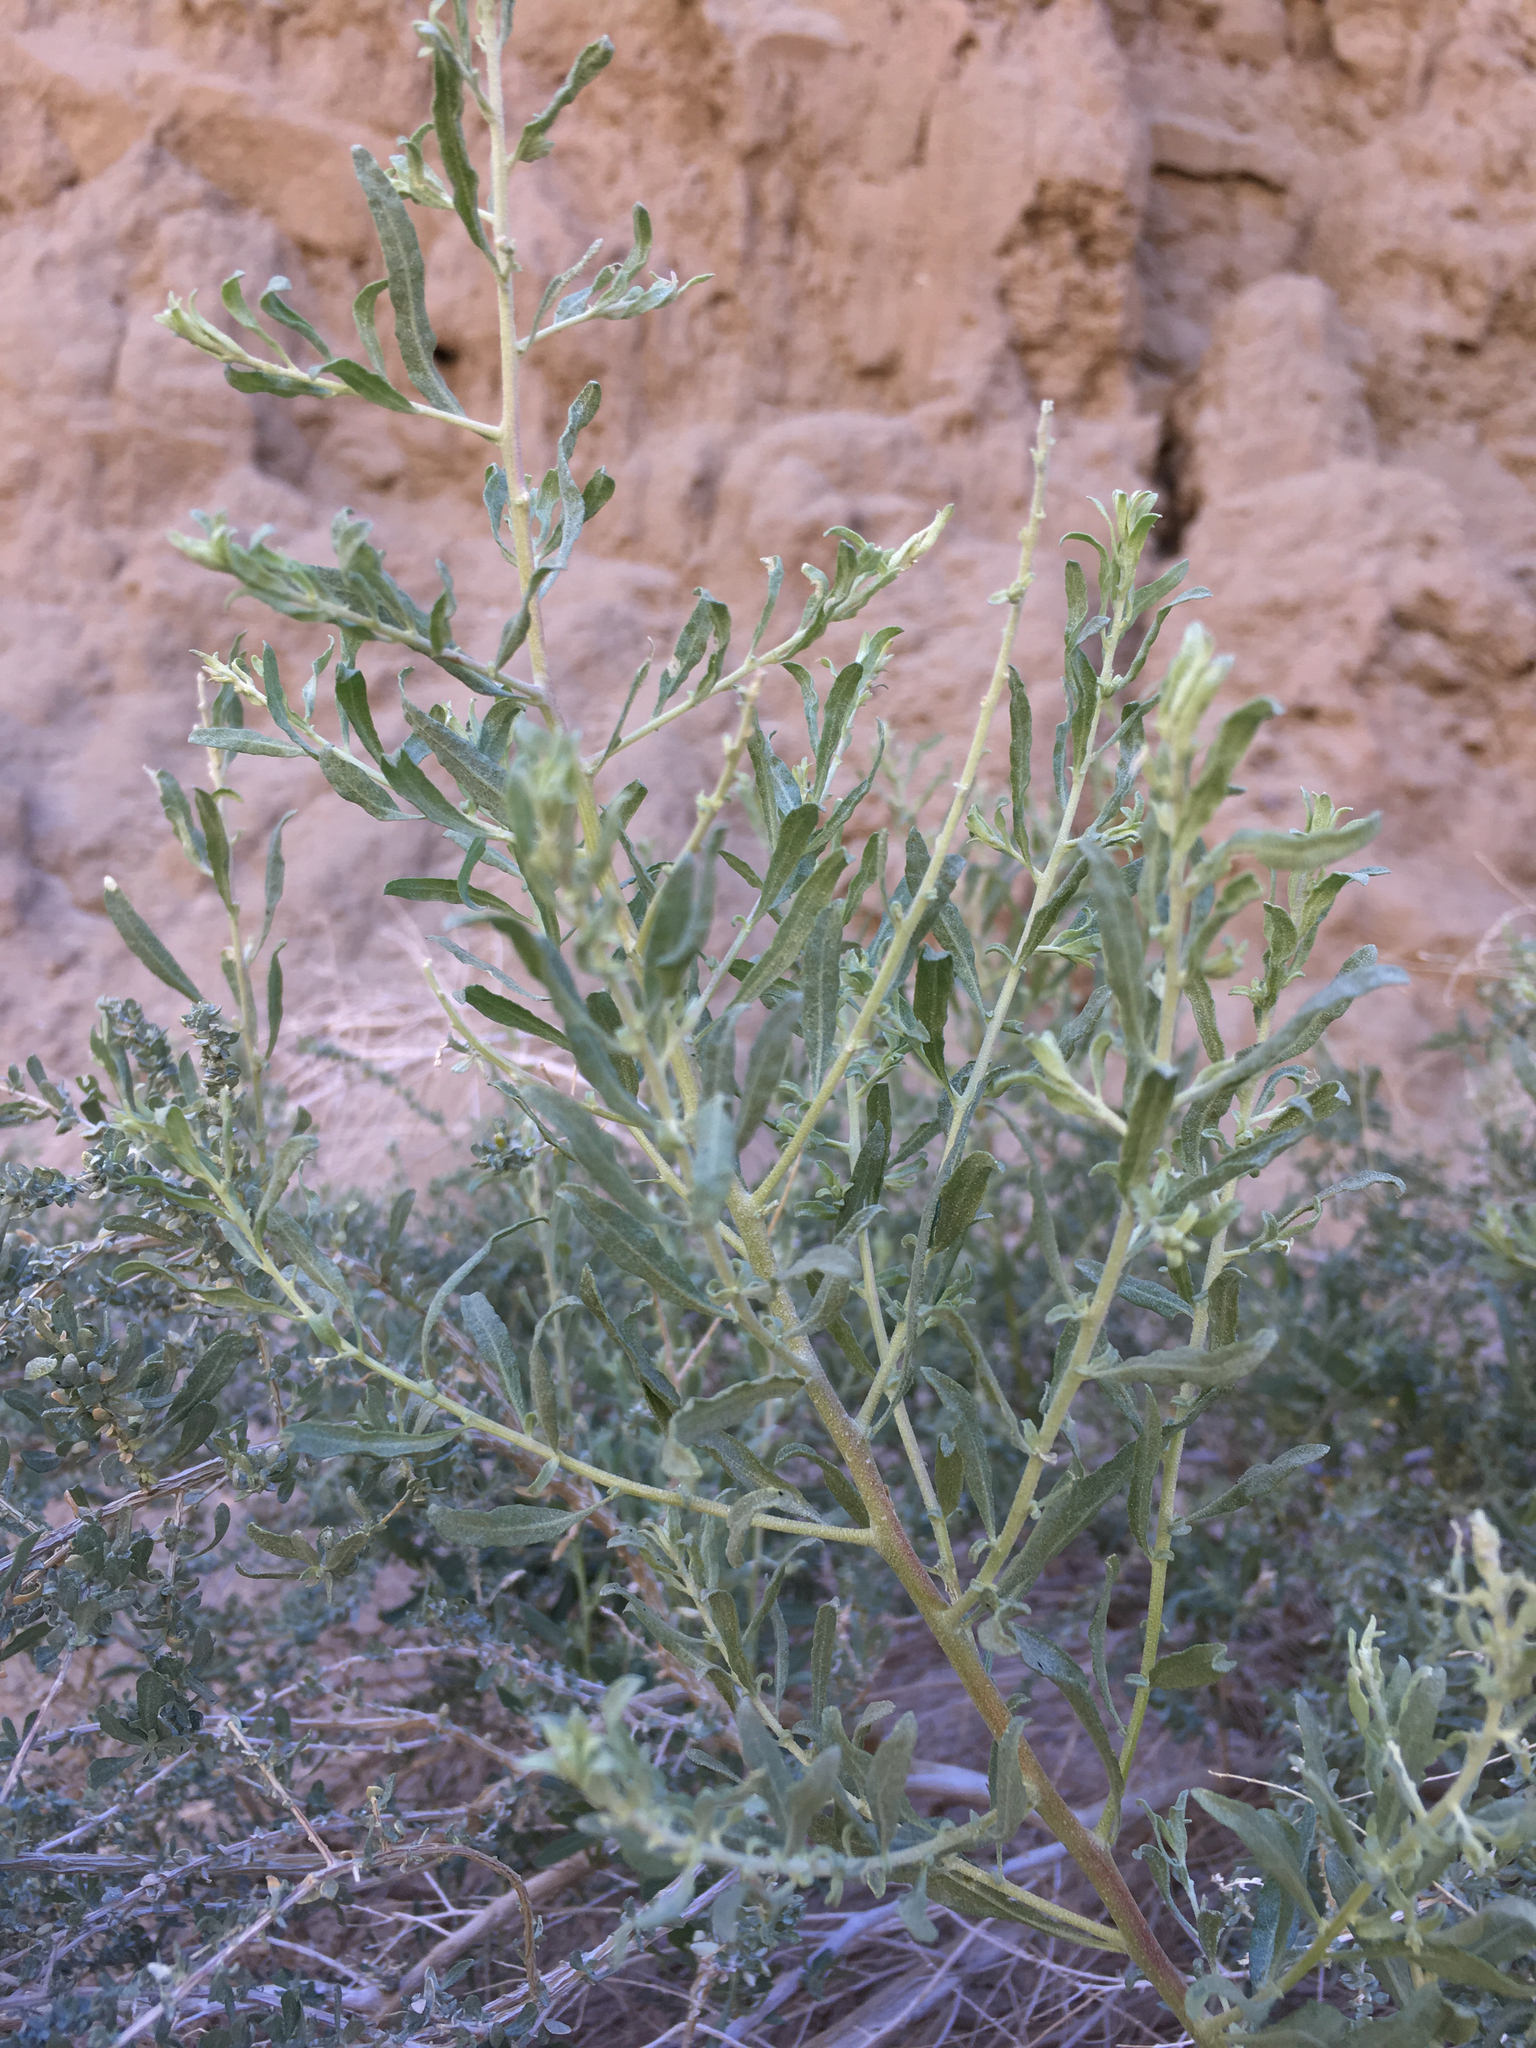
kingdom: Plantae
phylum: Tracheophyta
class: Magnoliopsida
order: Caryophyllales
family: Amaranthaceae
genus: Atriplex
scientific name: Atriplex canescens
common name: Four-wing saltbush
